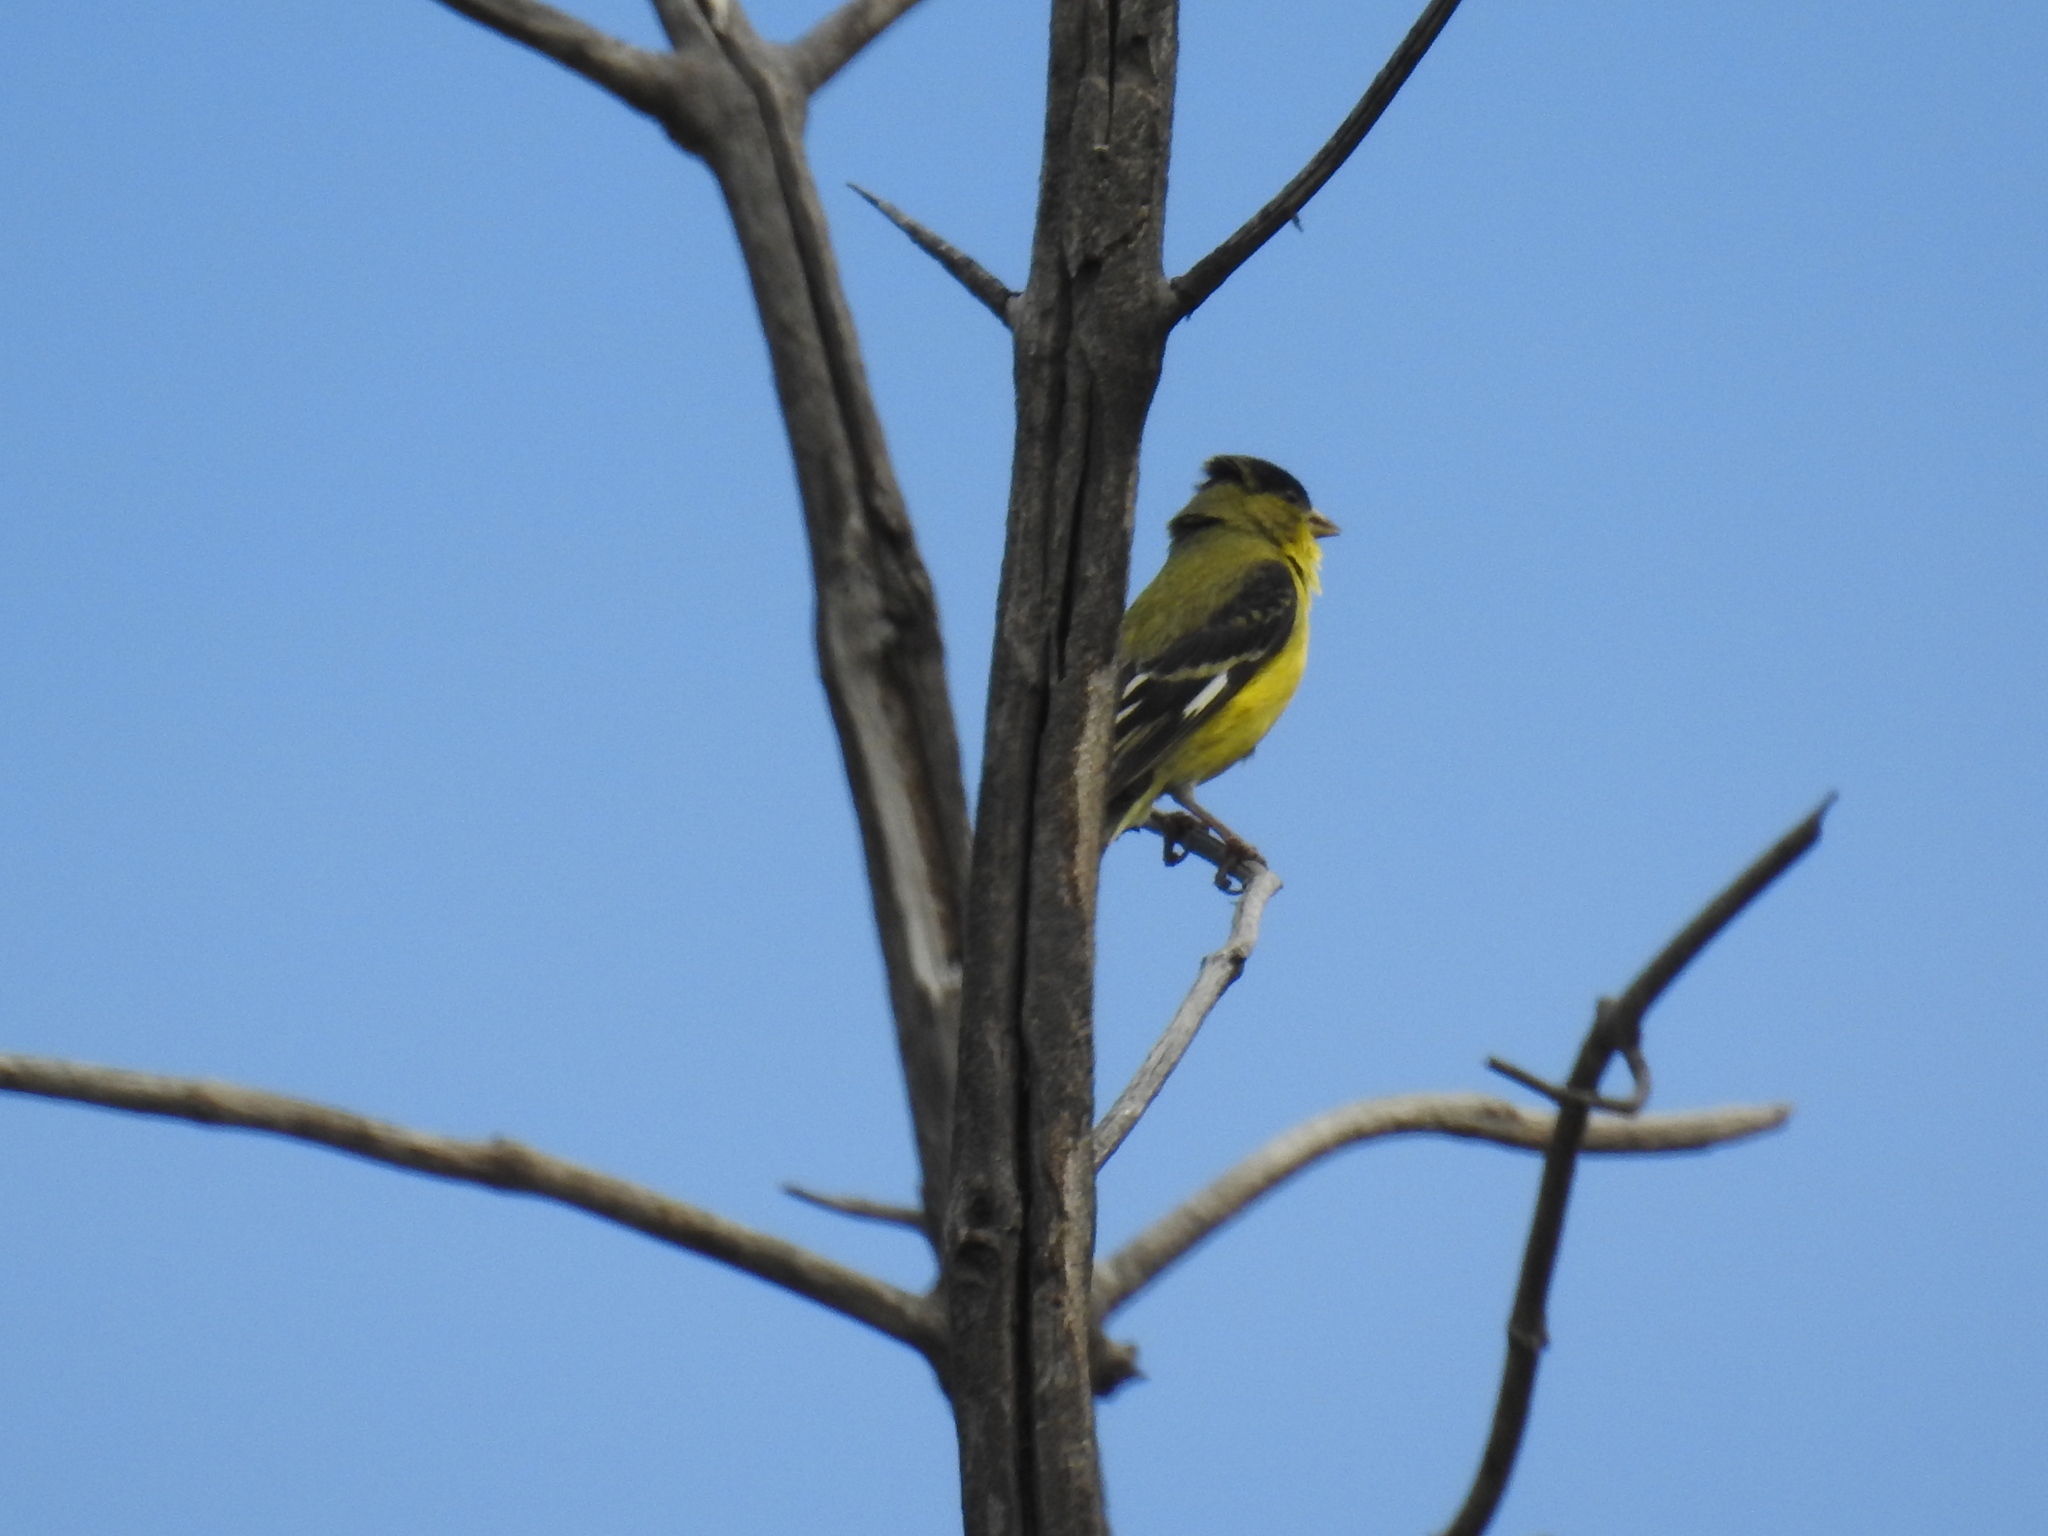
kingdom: Animalia
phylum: Chordata
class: Aves
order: Passeriformes
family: Fringillidae
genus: Spinus
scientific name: Spinus psaltria
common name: Lesser goldfinch
